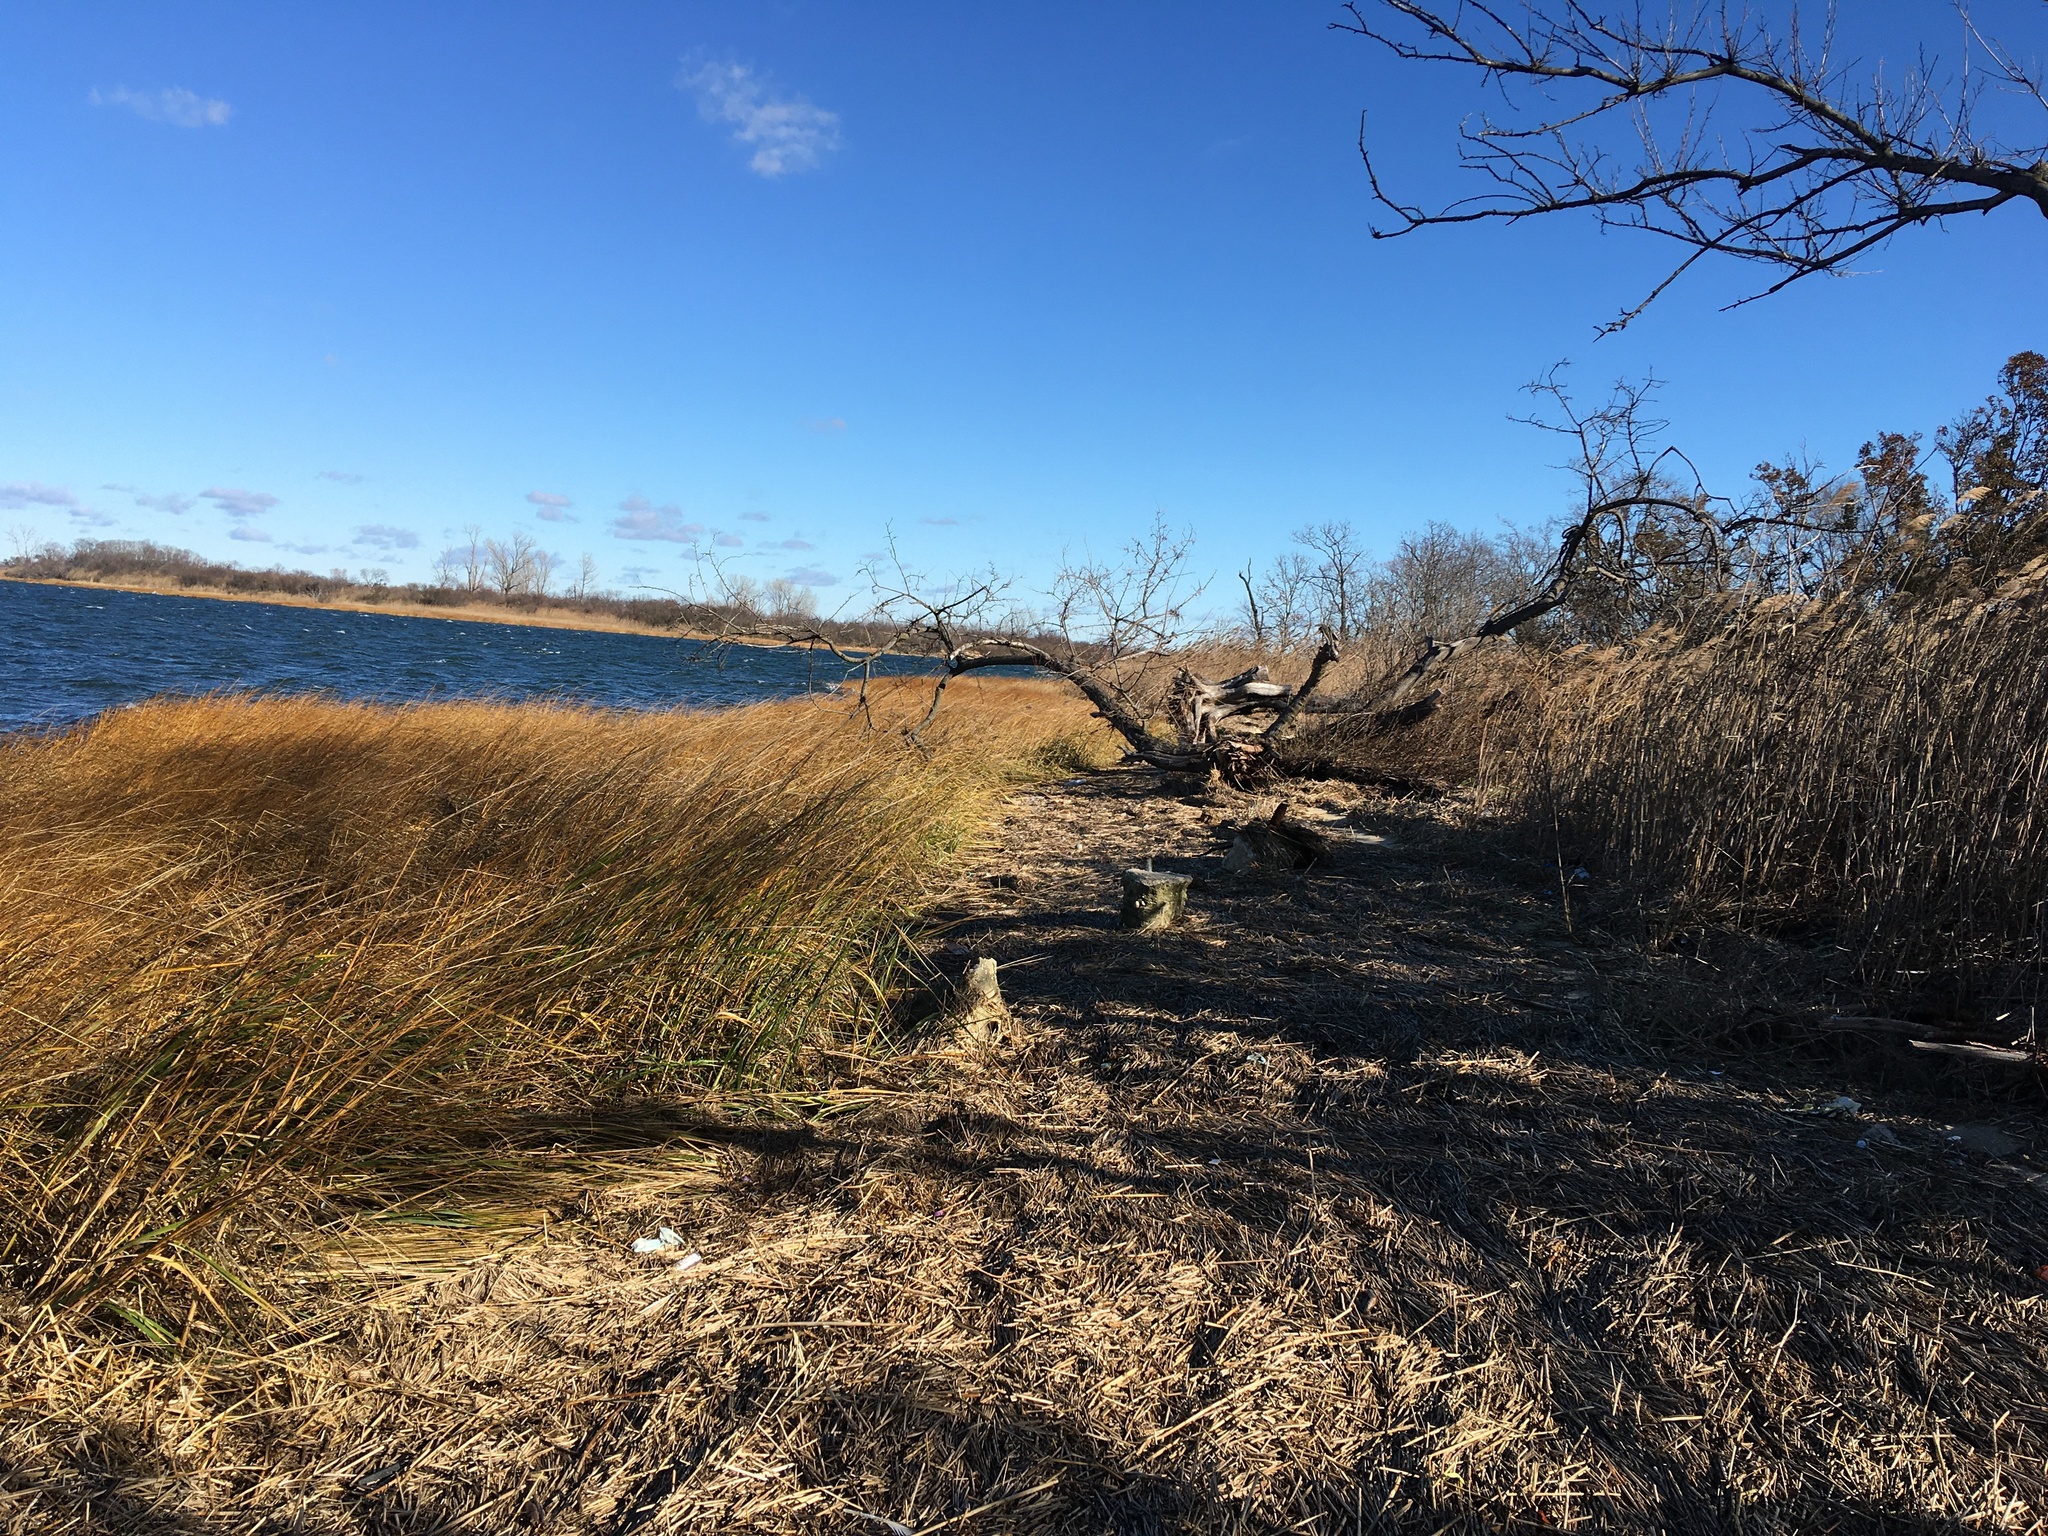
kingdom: Plantae
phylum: Tracheophyta
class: Liliopsida
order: Poales
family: Poaceae
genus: Sporobolus
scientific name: Sporobolus alterniflorus
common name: Atlantic cordgrass
